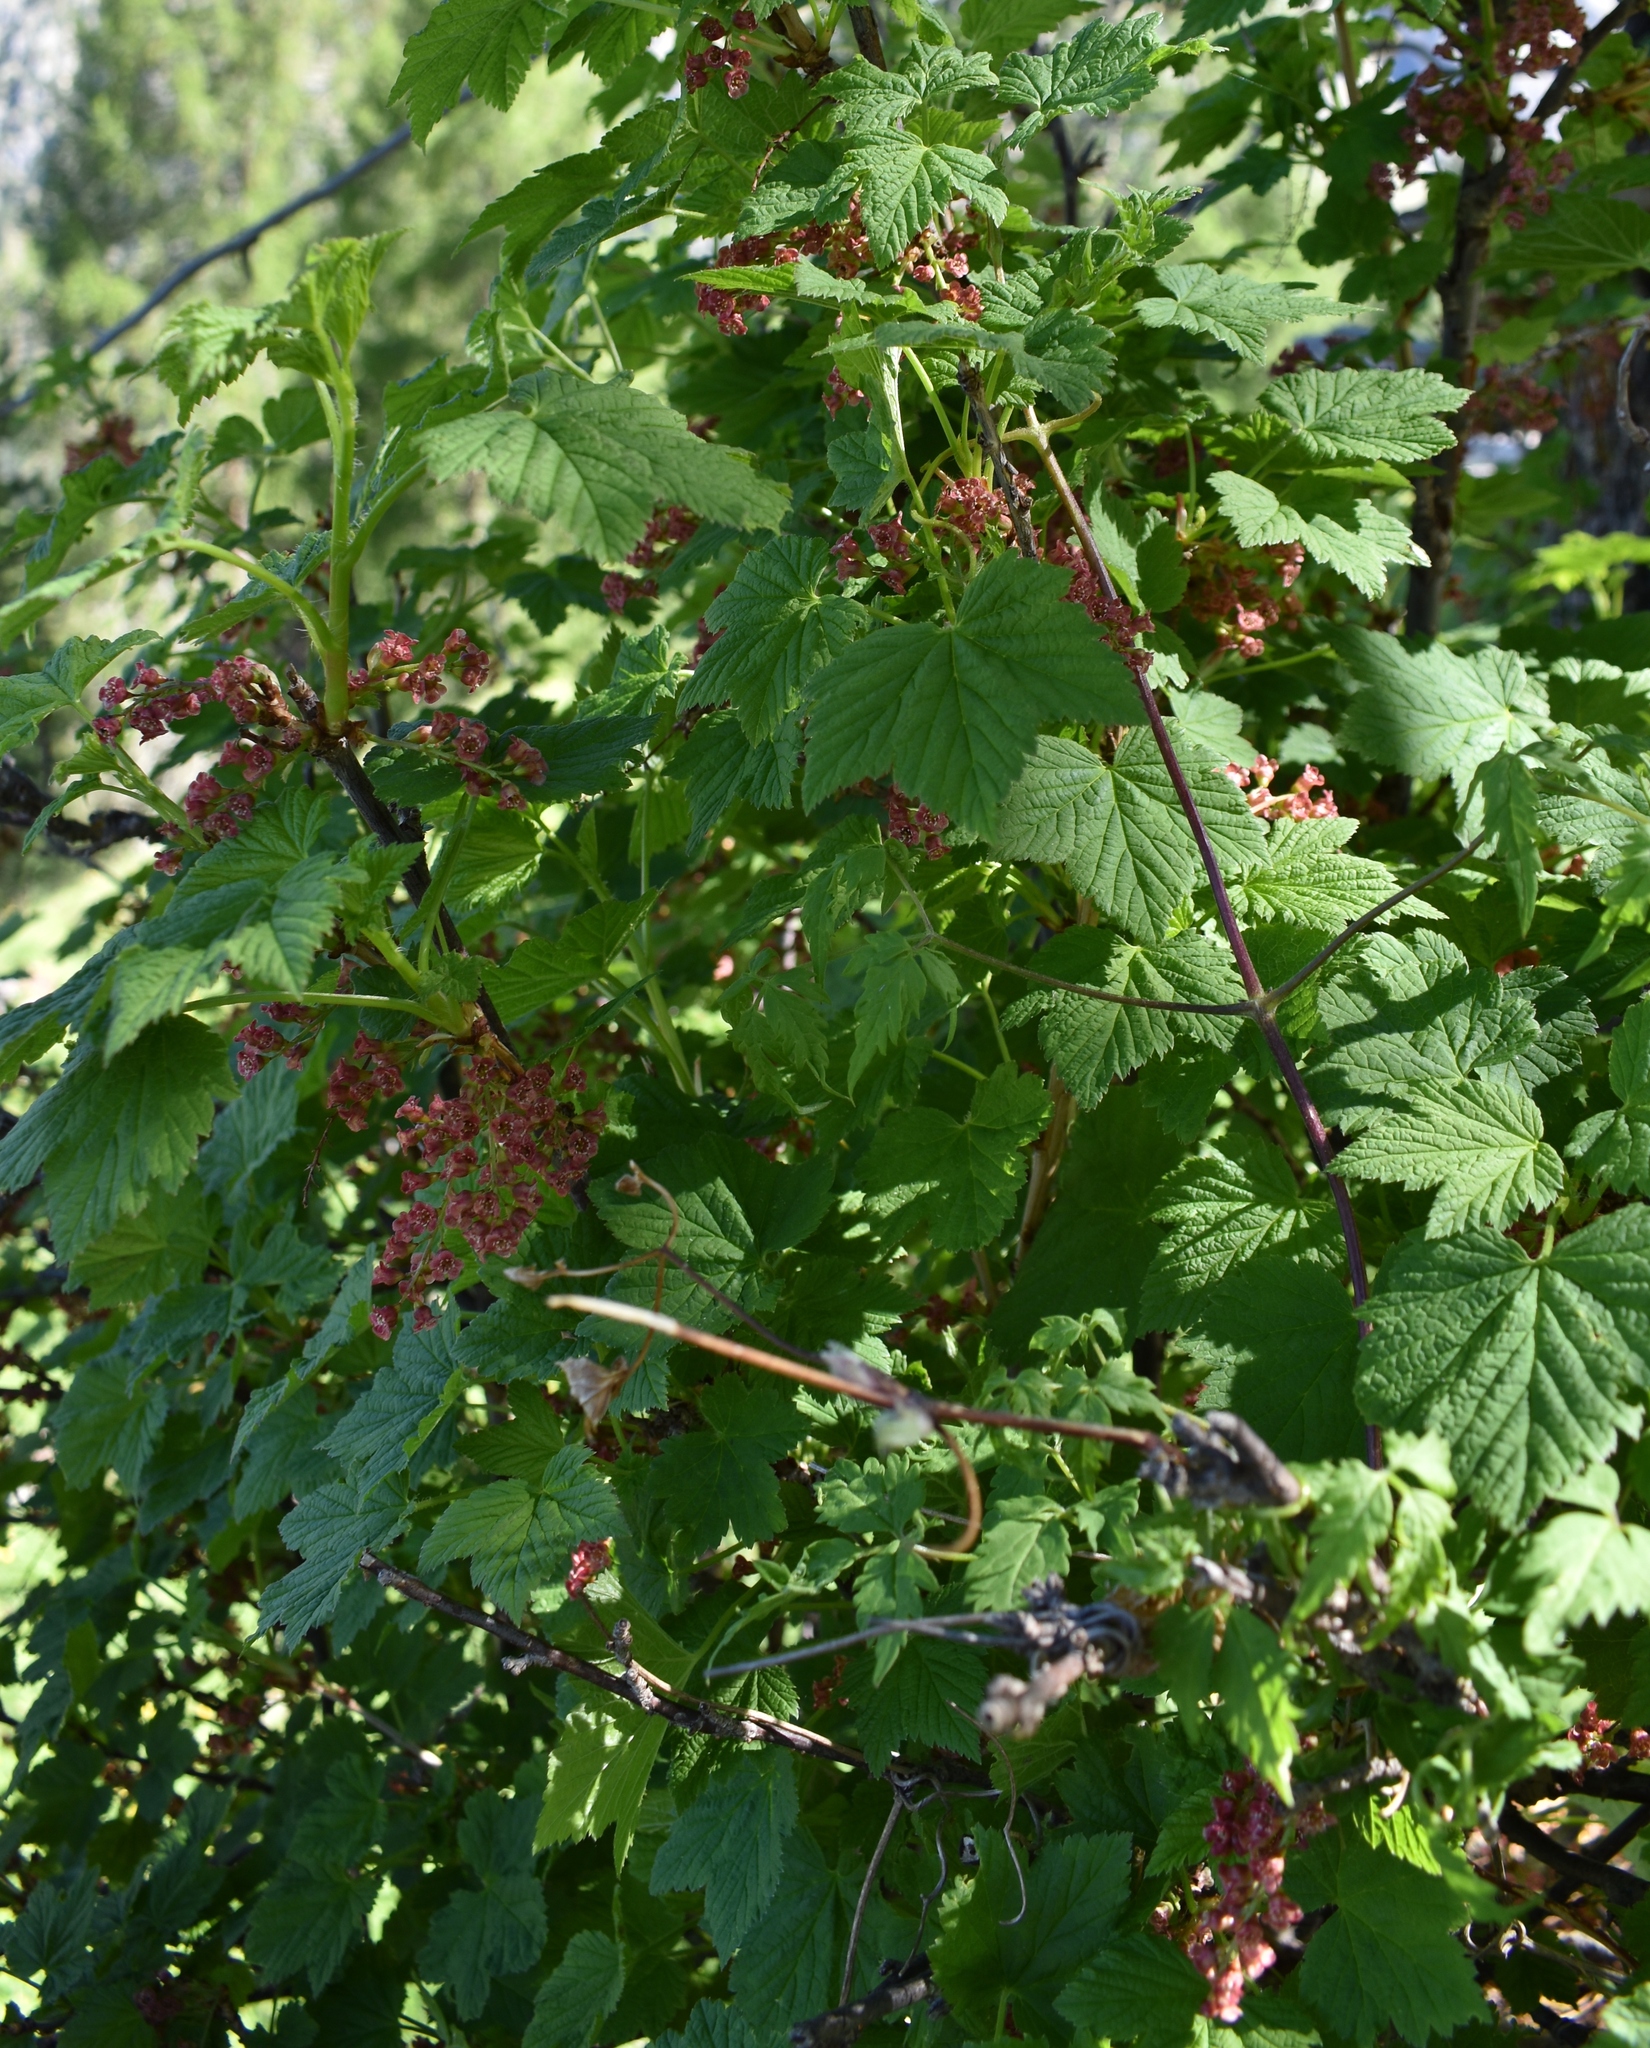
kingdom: Plantae
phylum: Tracheophyta
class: Magnoliopsida
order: Saxifragales
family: Grossulariaceae
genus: Ribes
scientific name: Ribes petraeum
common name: Rock currant
